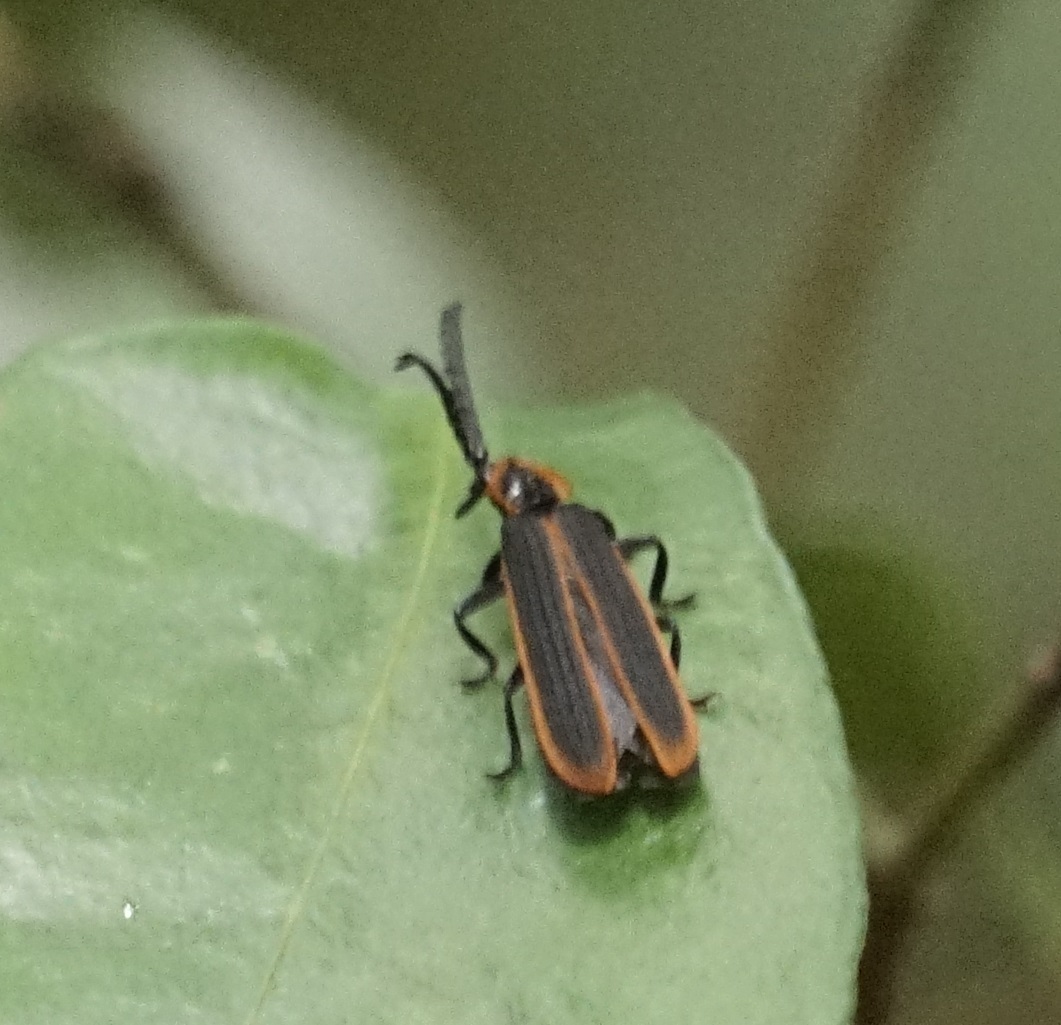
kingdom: Animalia
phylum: Arthropoda
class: Insecta
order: Coleoptera
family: Lycidae
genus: Metriorrhynchus
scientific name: Metriorrhynchus
